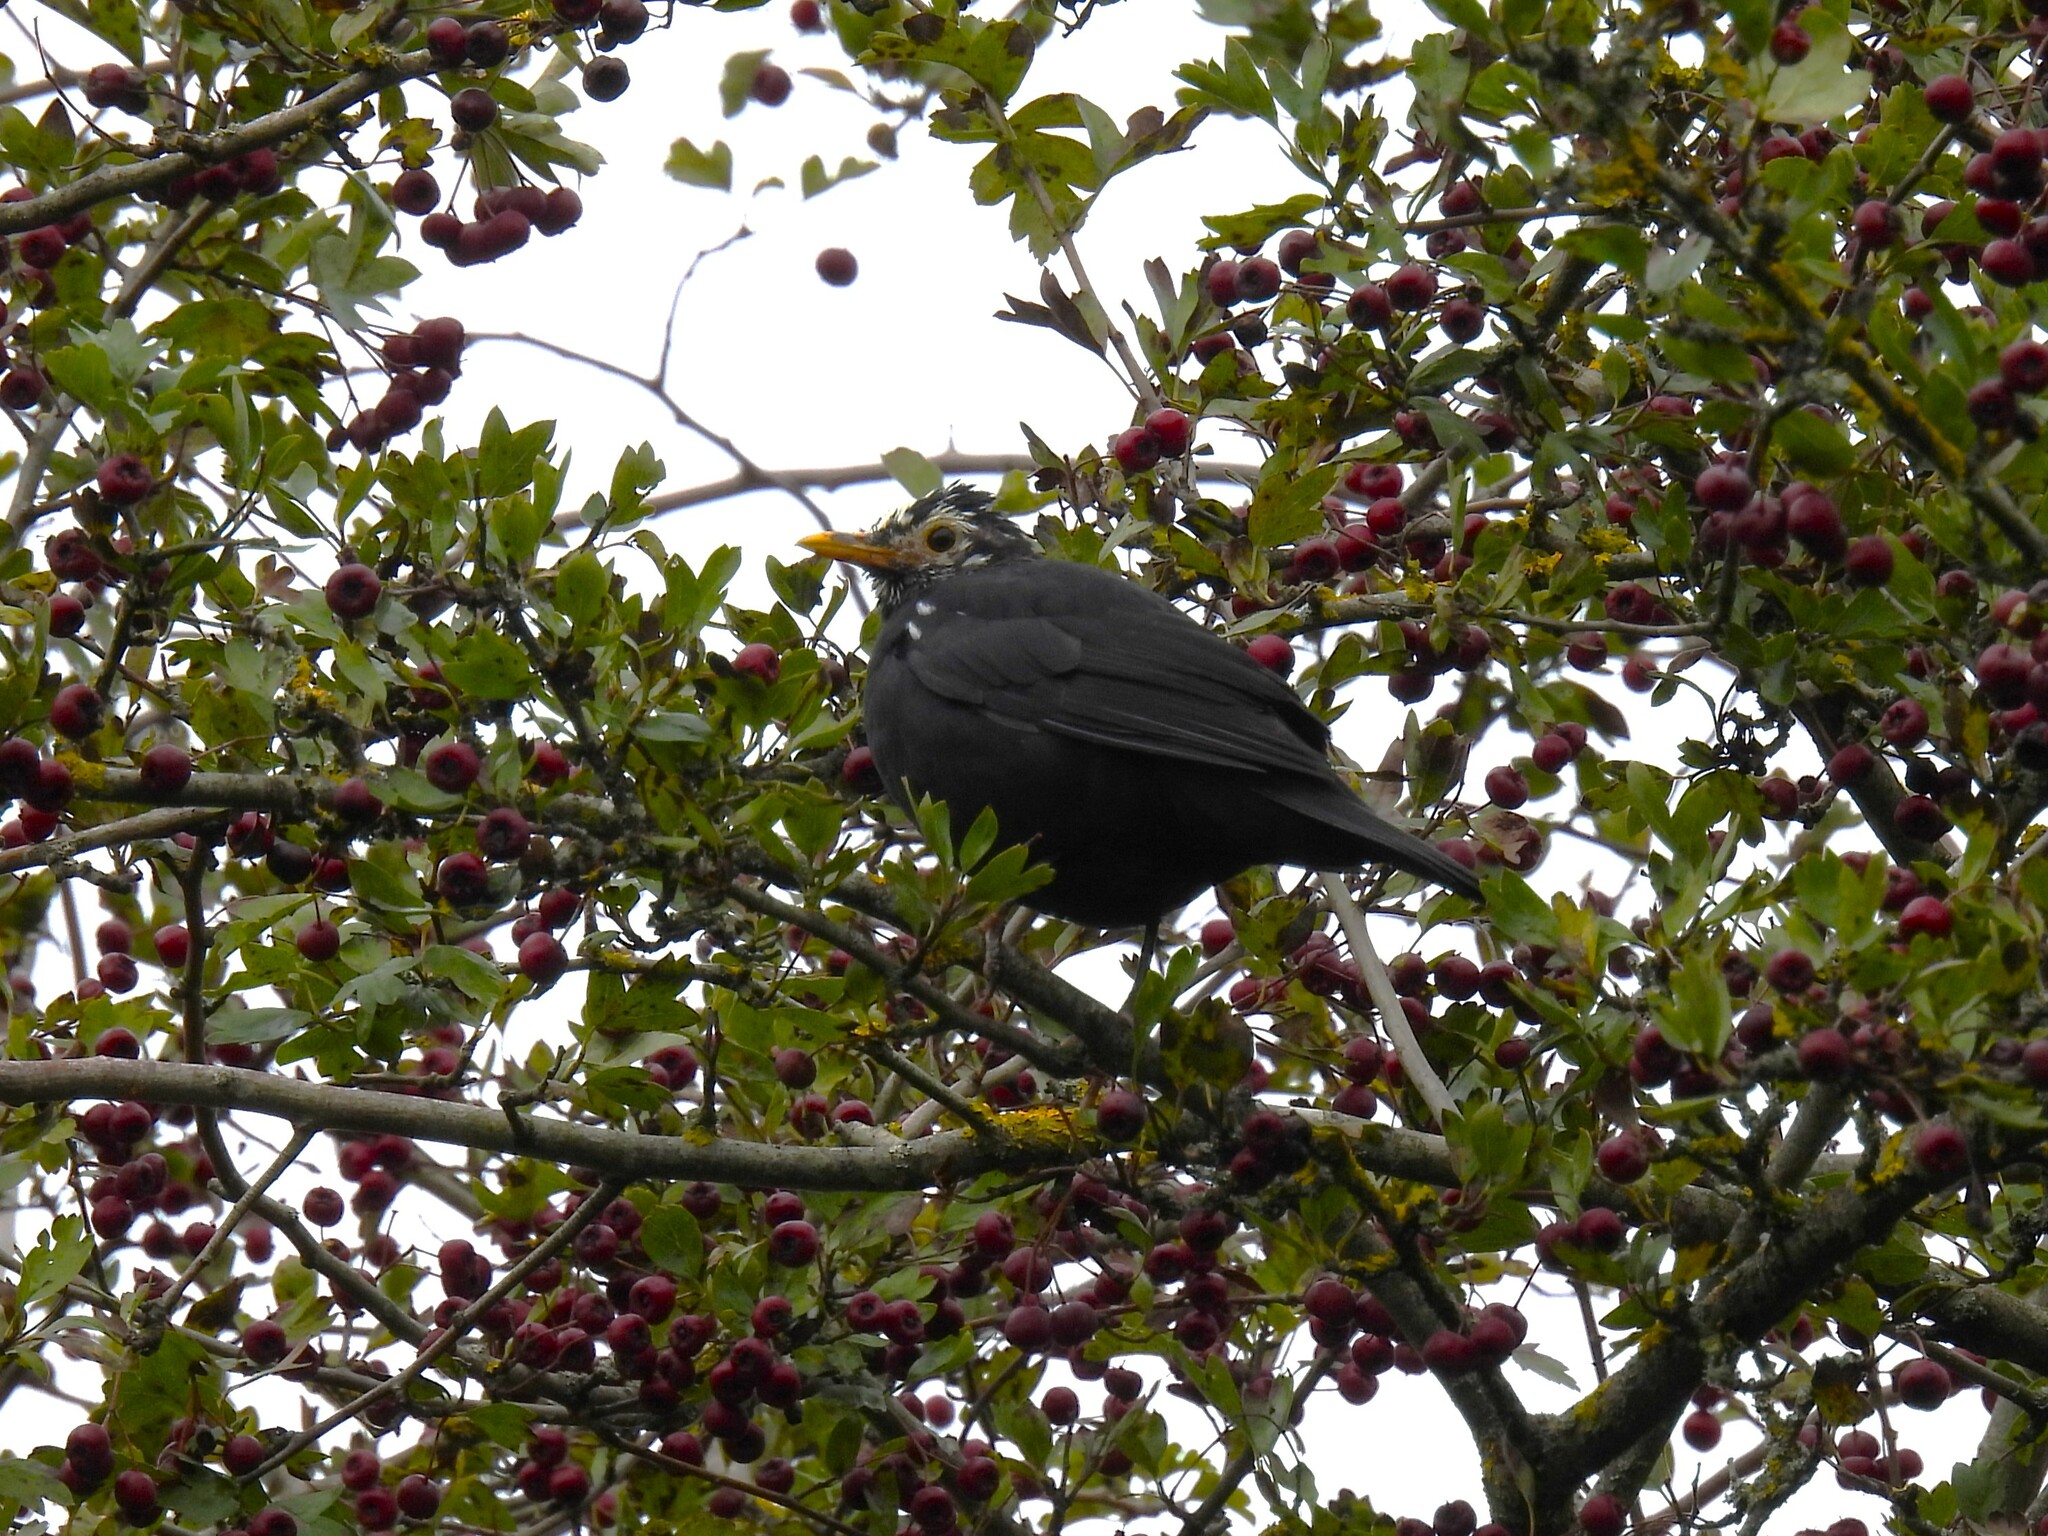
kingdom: Animalia
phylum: Chordata
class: Aves
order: Passeriformes
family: Turdidae
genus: Turdus
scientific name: Turdus merula
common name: Common blackbird
